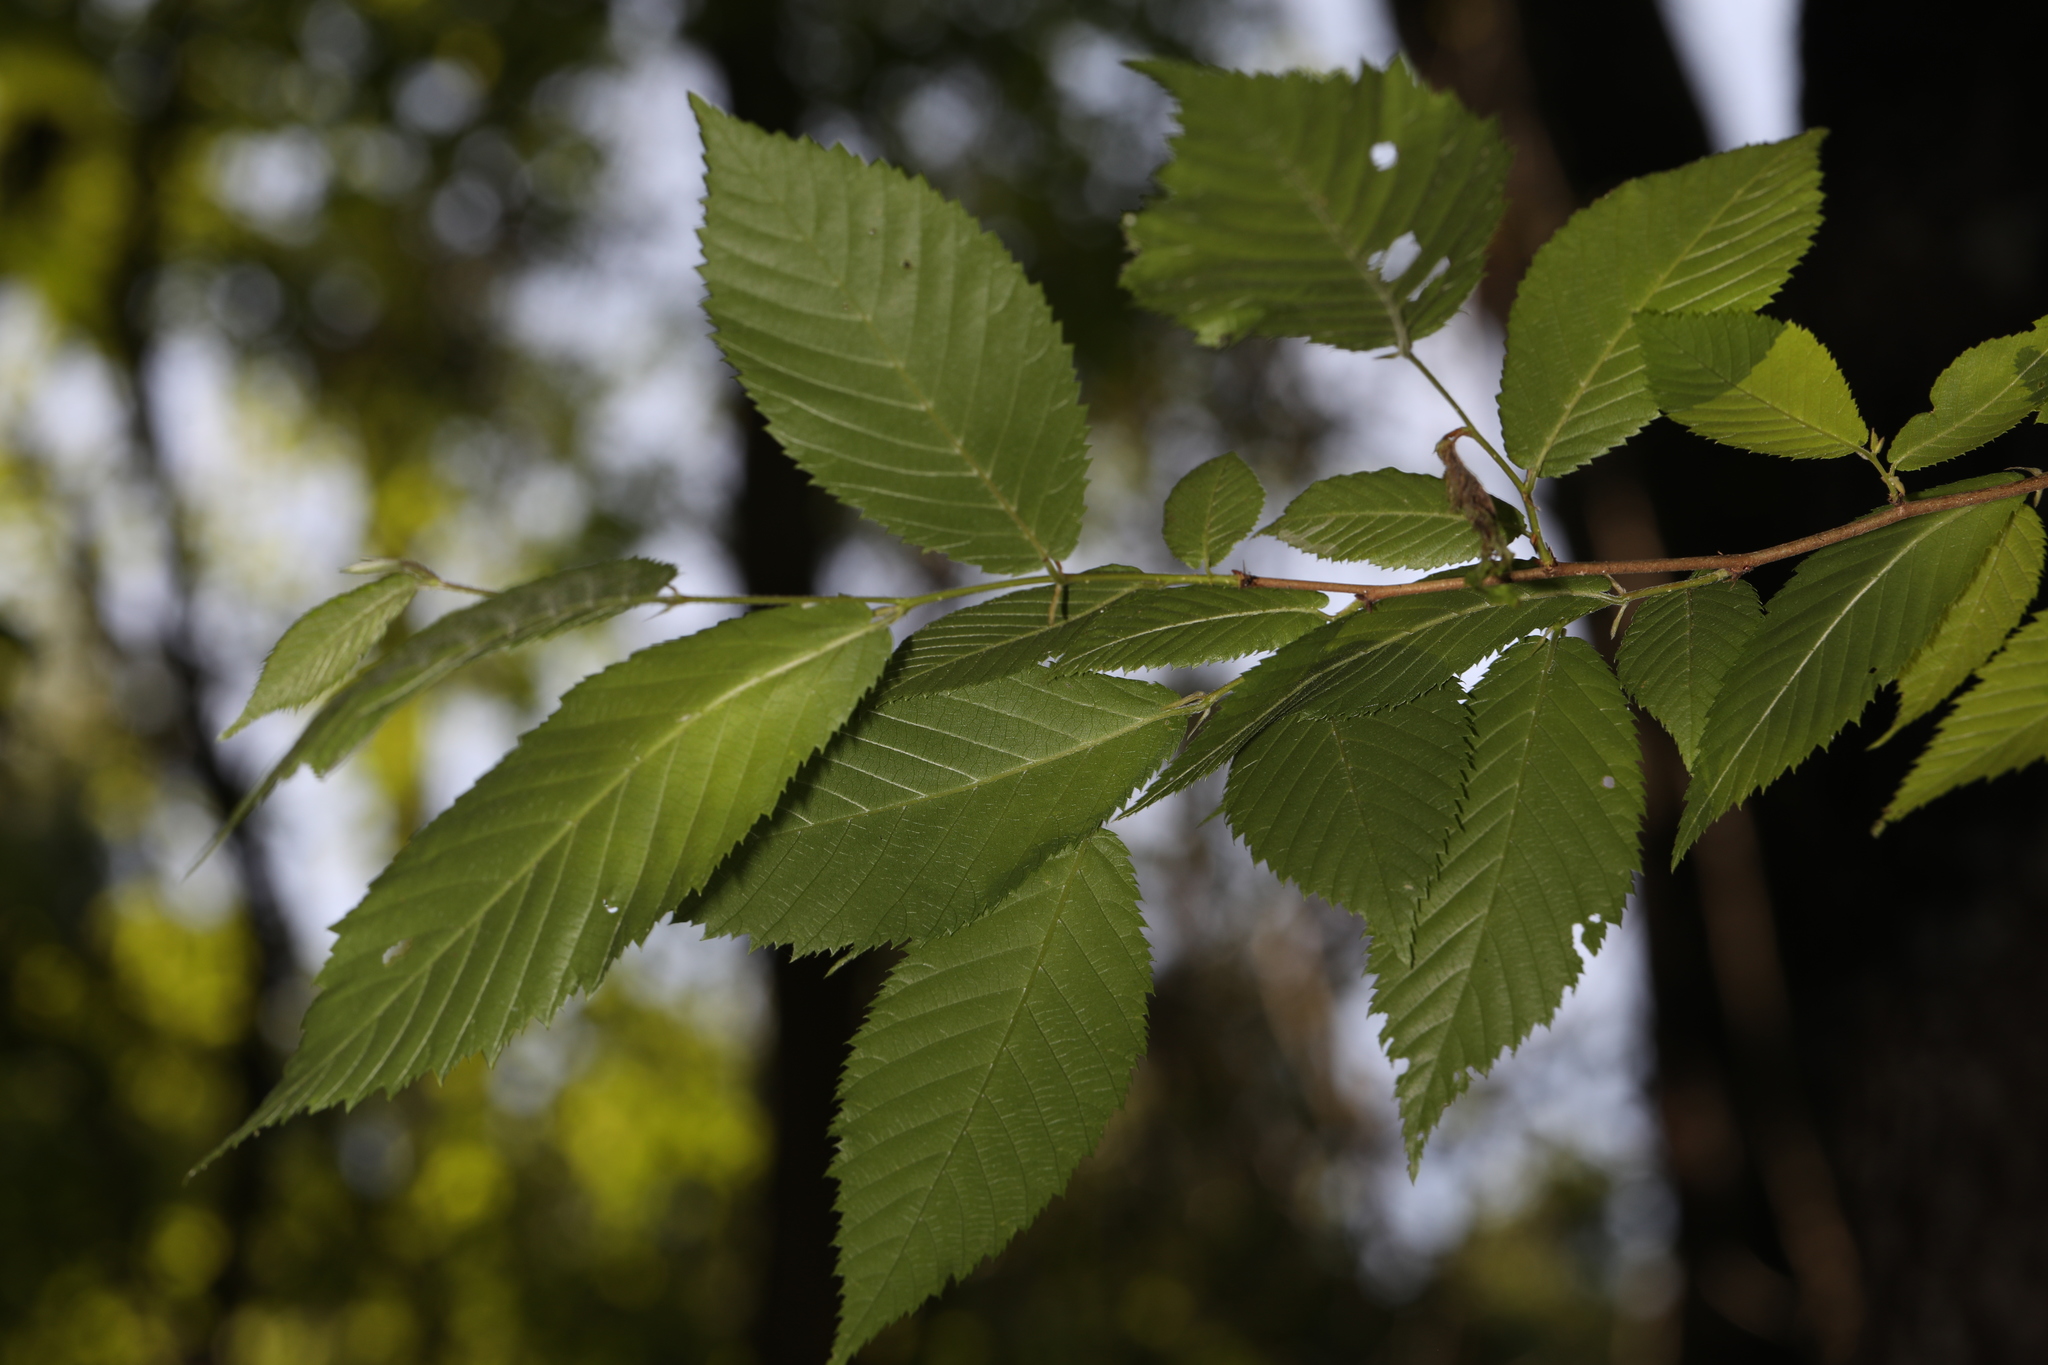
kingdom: Plantae
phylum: Tracheophyta
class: Magnoliopsida
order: Fagales
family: Betulaceae
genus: Ostrya
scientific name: Ostrya virginiana
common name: Ironwood
